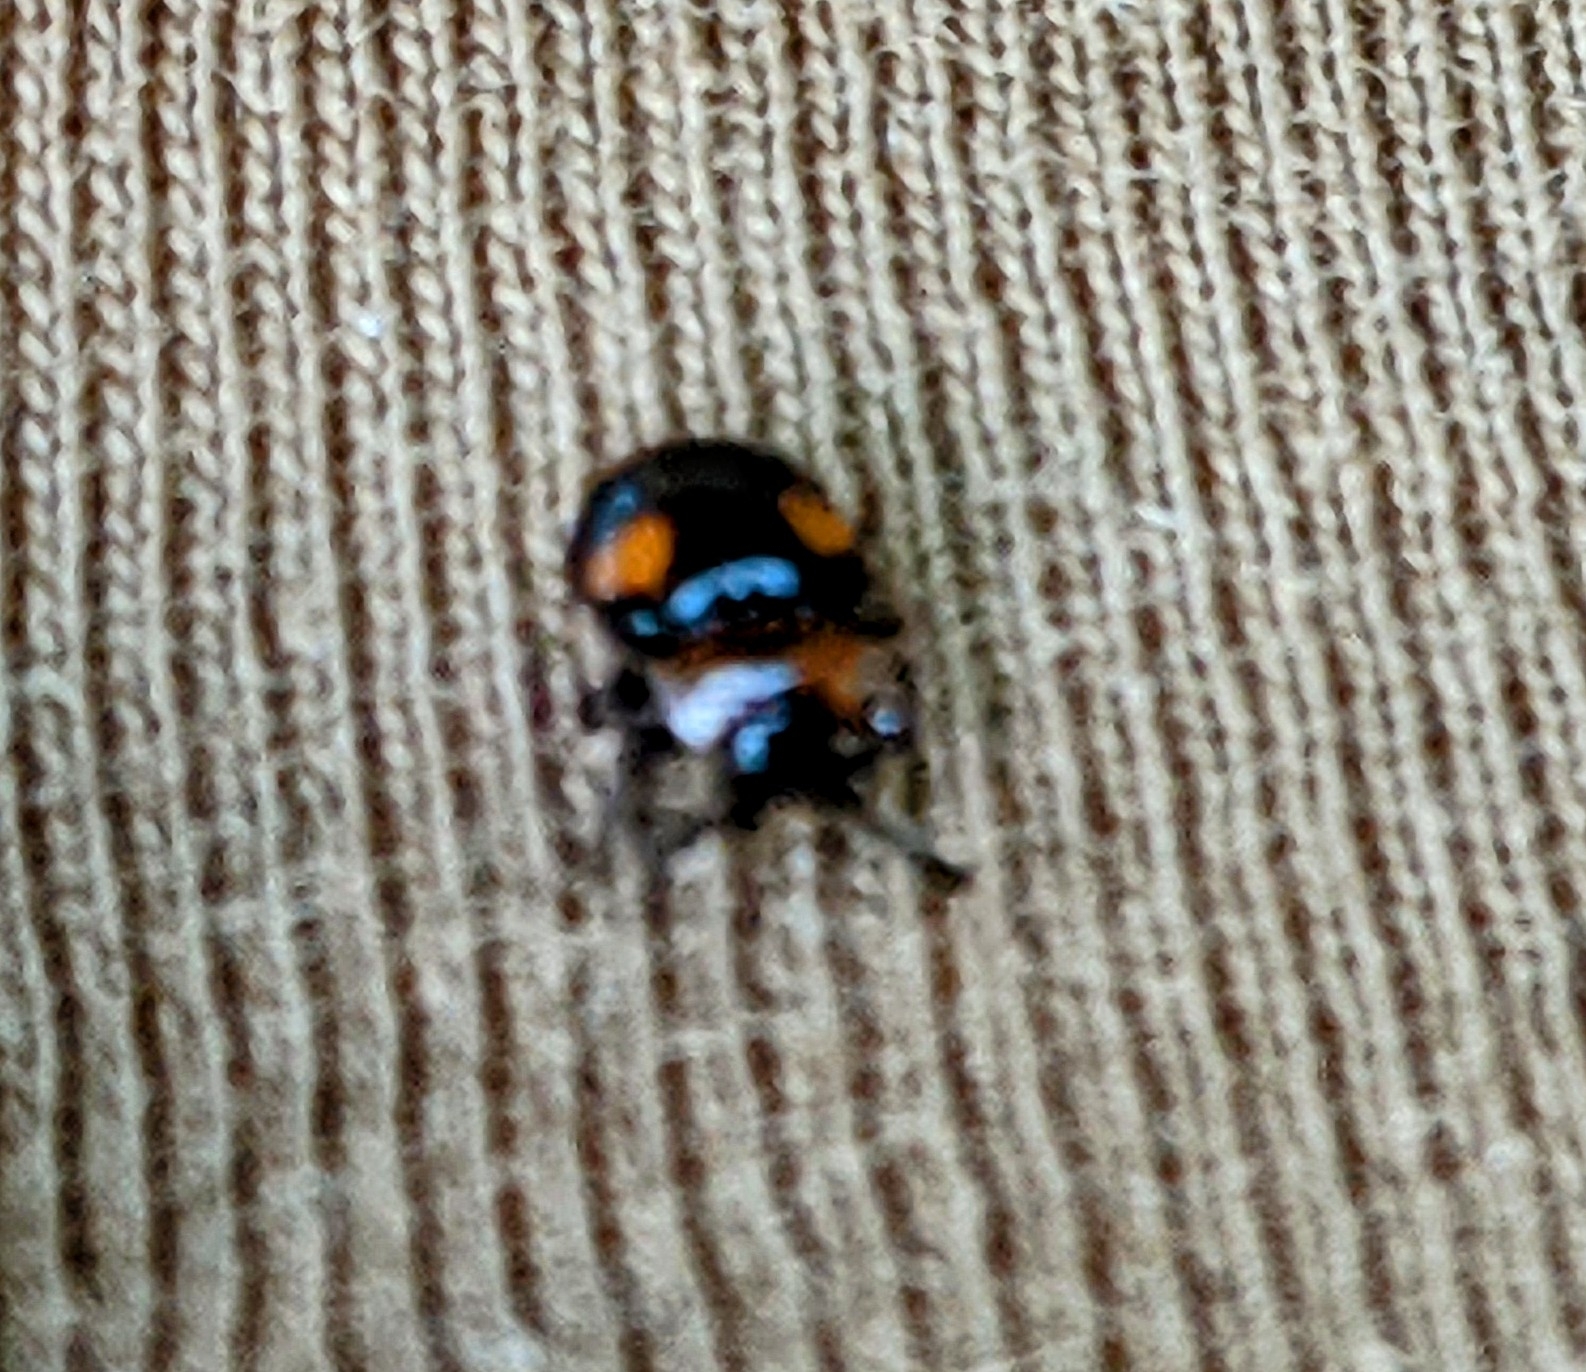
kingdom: Animalia
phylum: Arthropoda
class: Insecta
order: Coleoptera
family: Endomychidae
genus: Mycetina
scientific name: Mycetina perpulchra
